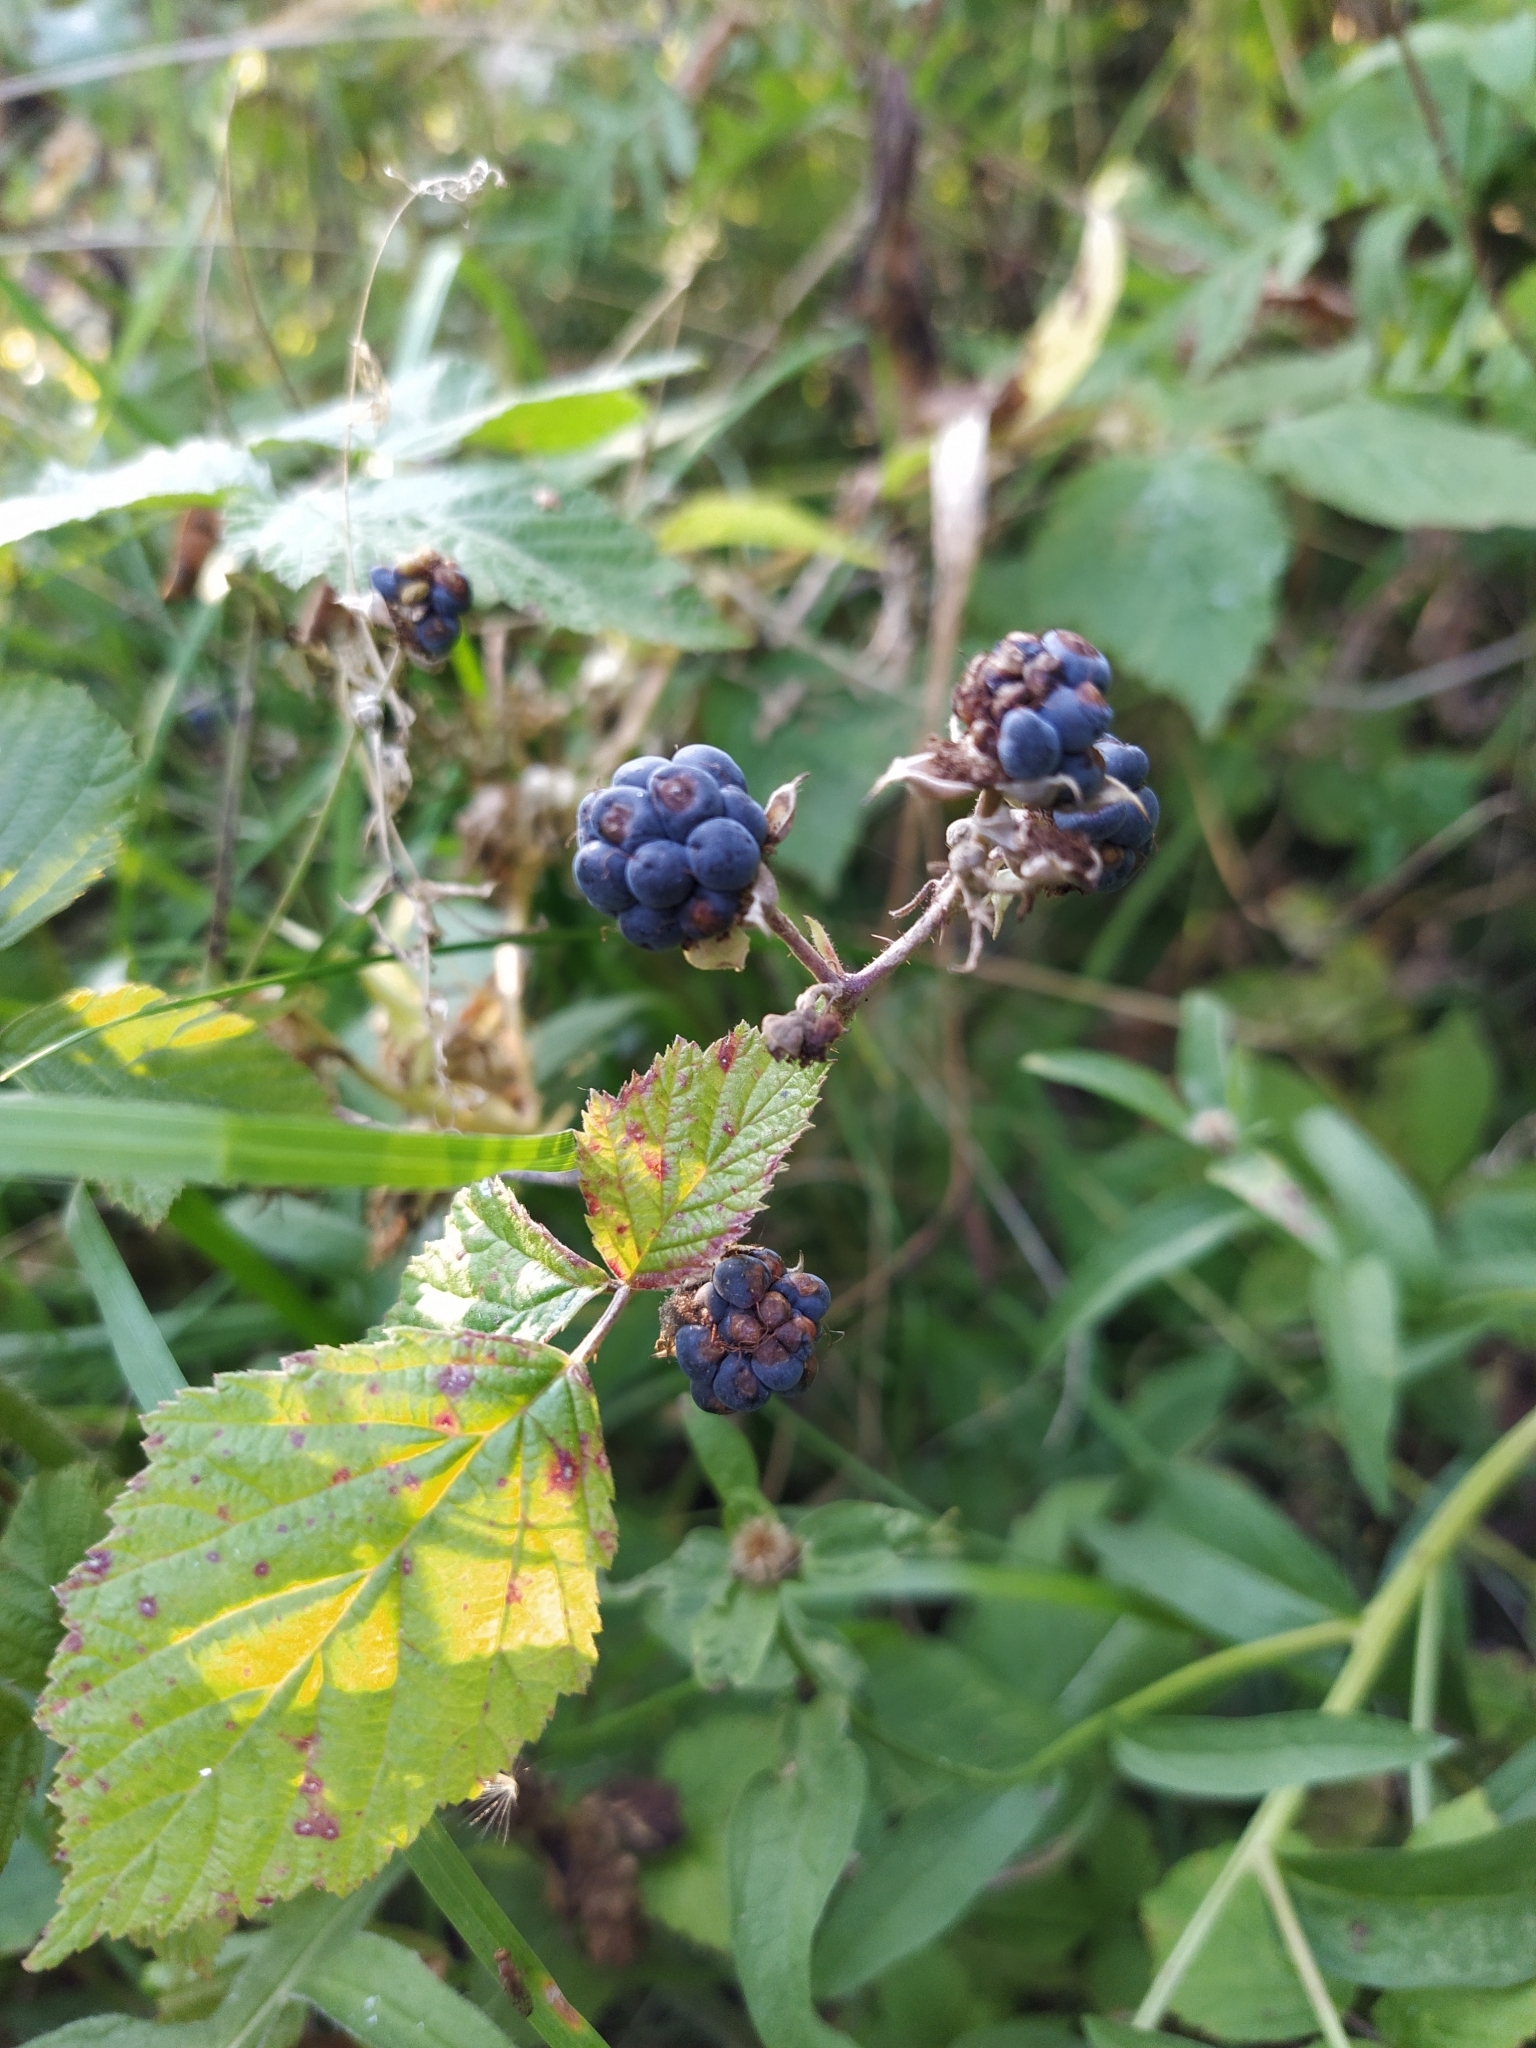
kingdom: Plantae
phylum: Tracheophyta
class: Magnoliopsida
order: Rosales
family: Rosaceae
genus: Rubus
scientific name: Rubus caesius
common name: Dewberry
